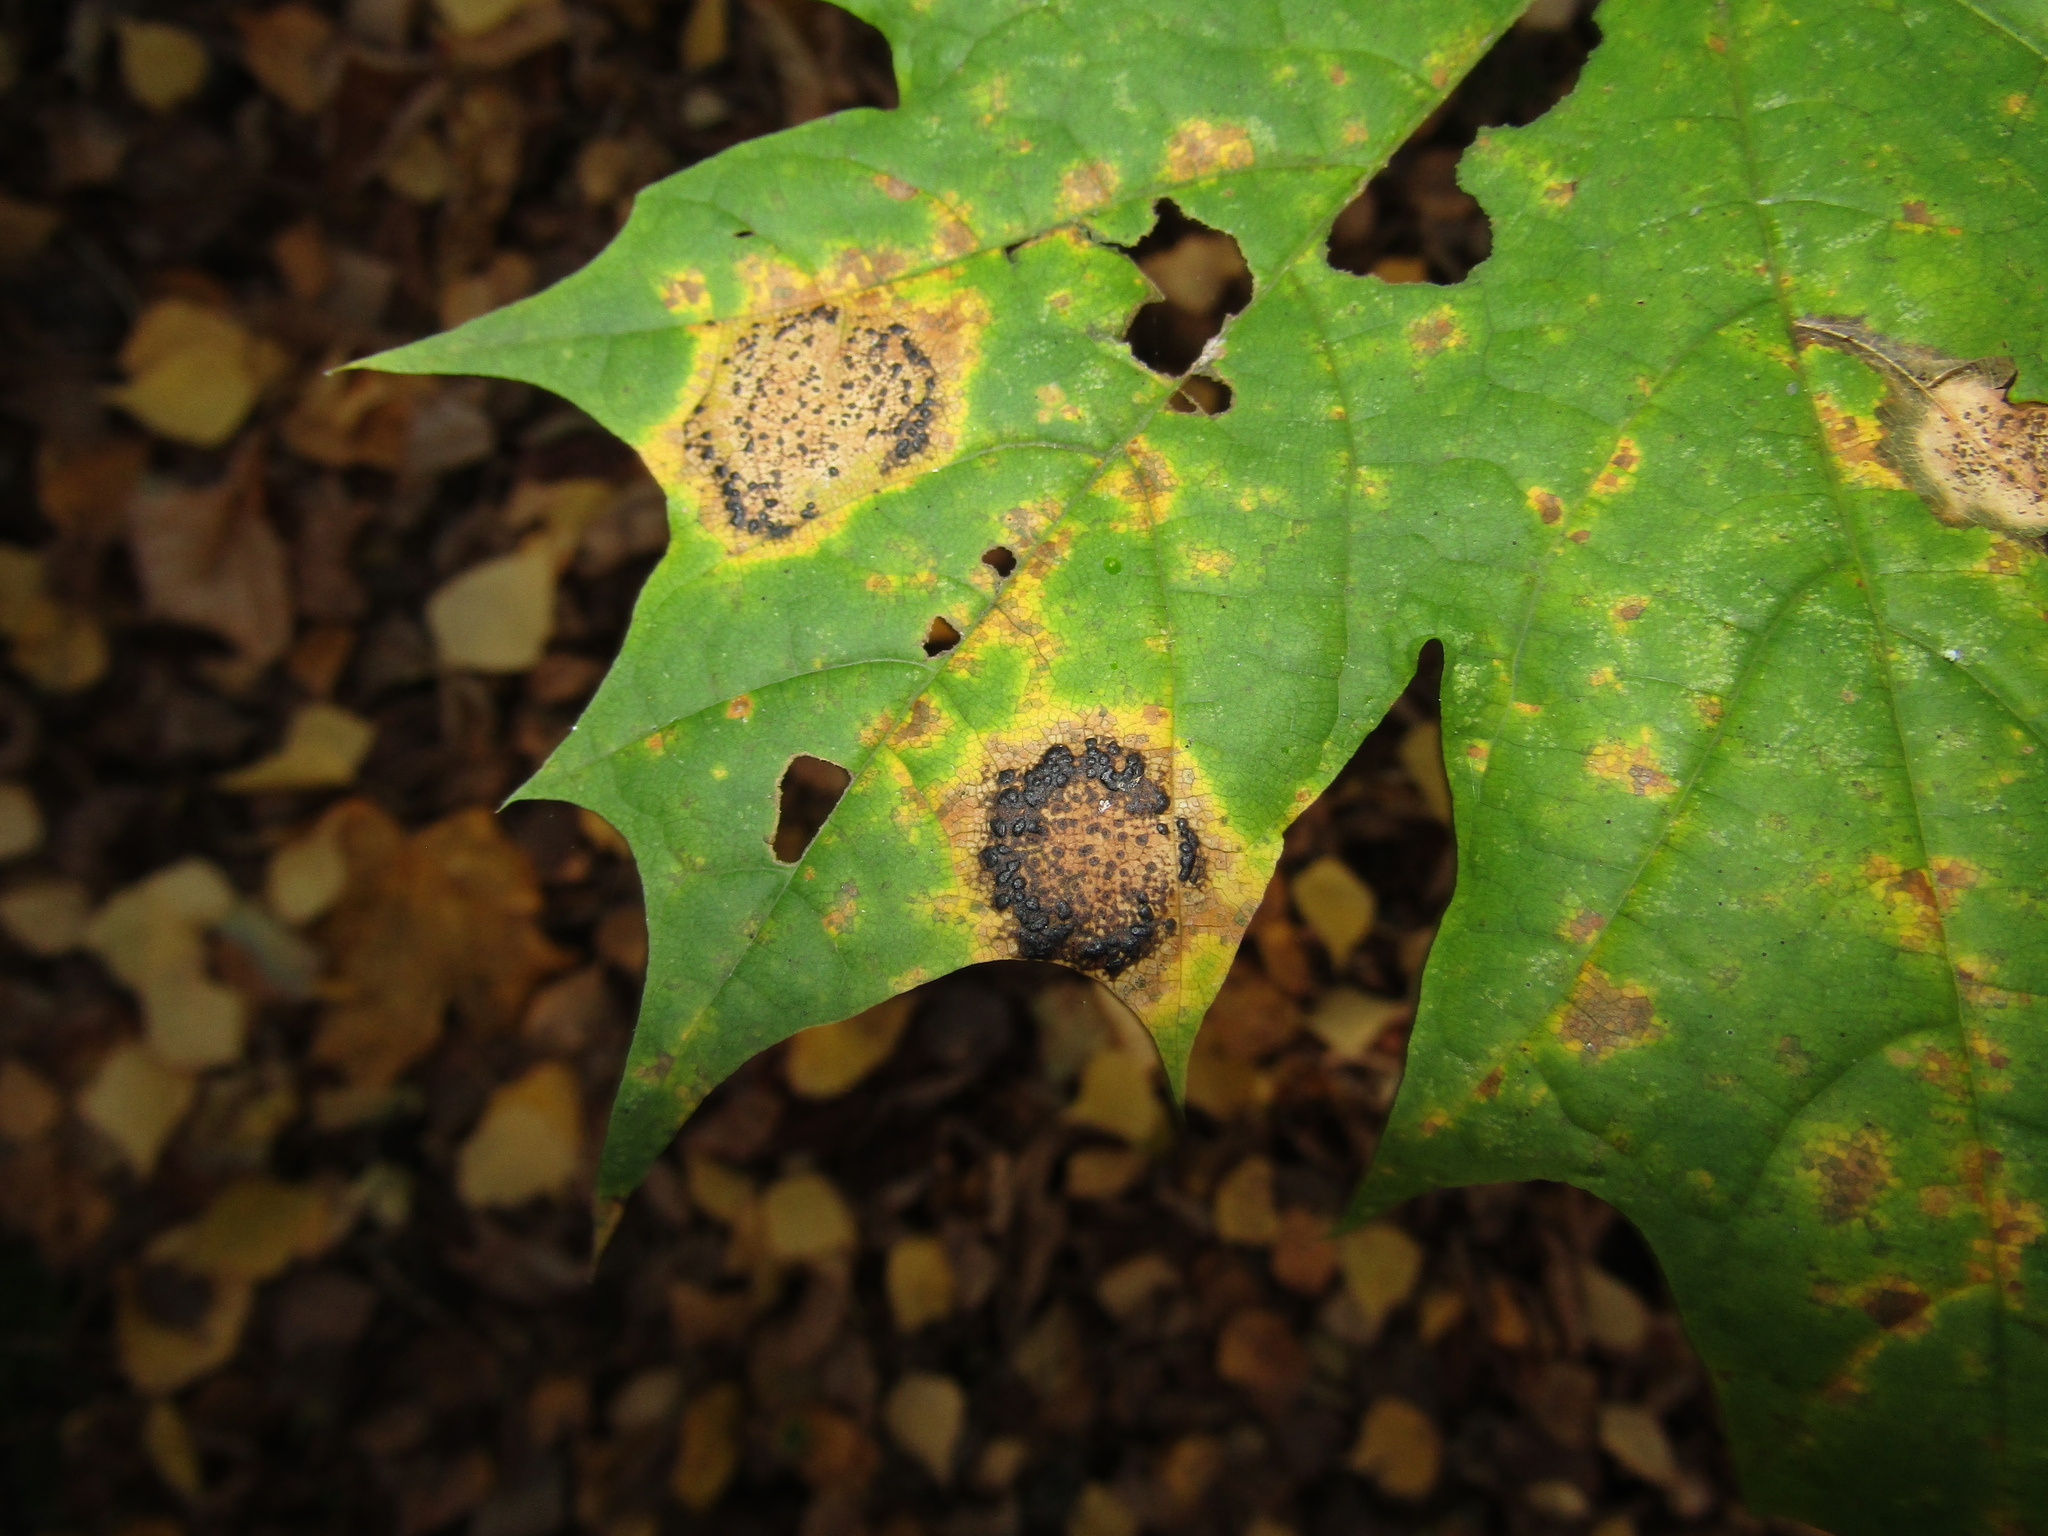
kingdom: Fungi
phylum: Ascomycota
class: Leotiomycetes
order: Rhytismatales
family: Rhytismataceae
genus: Rhytisma
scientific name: Rhytisma acerinum
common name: European tar spot
